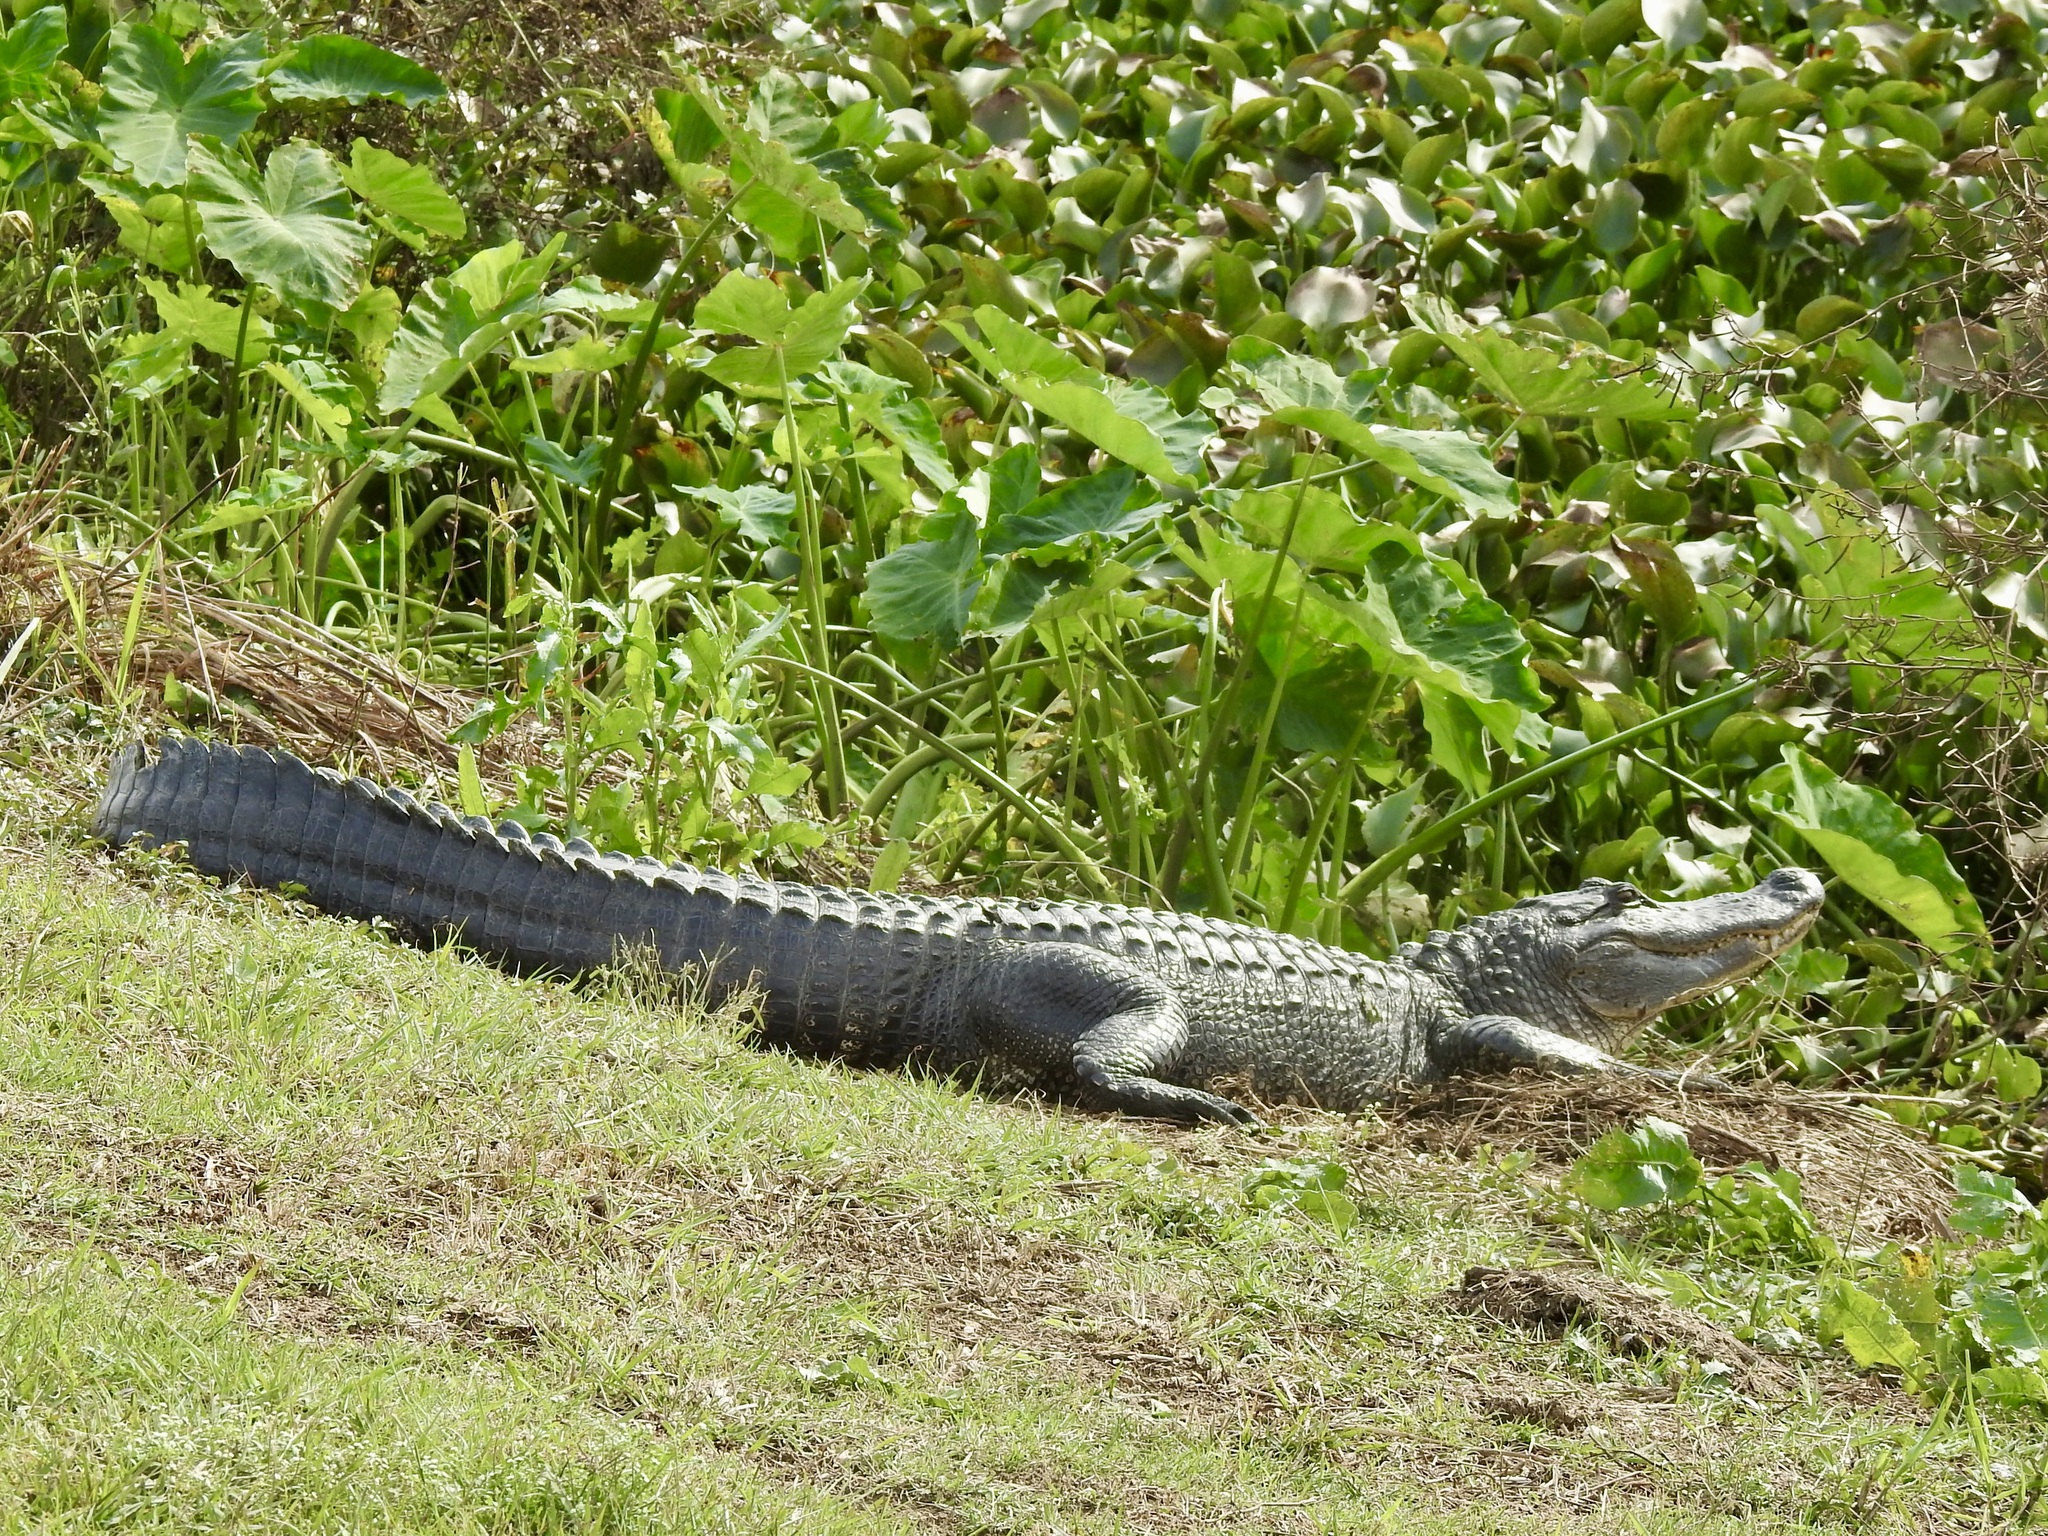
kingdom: Animalia
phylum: Chordata
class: Crocodylia
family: Alligatoridae
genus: Alligator
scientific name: Alligator mississippiensis
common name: American alligator
